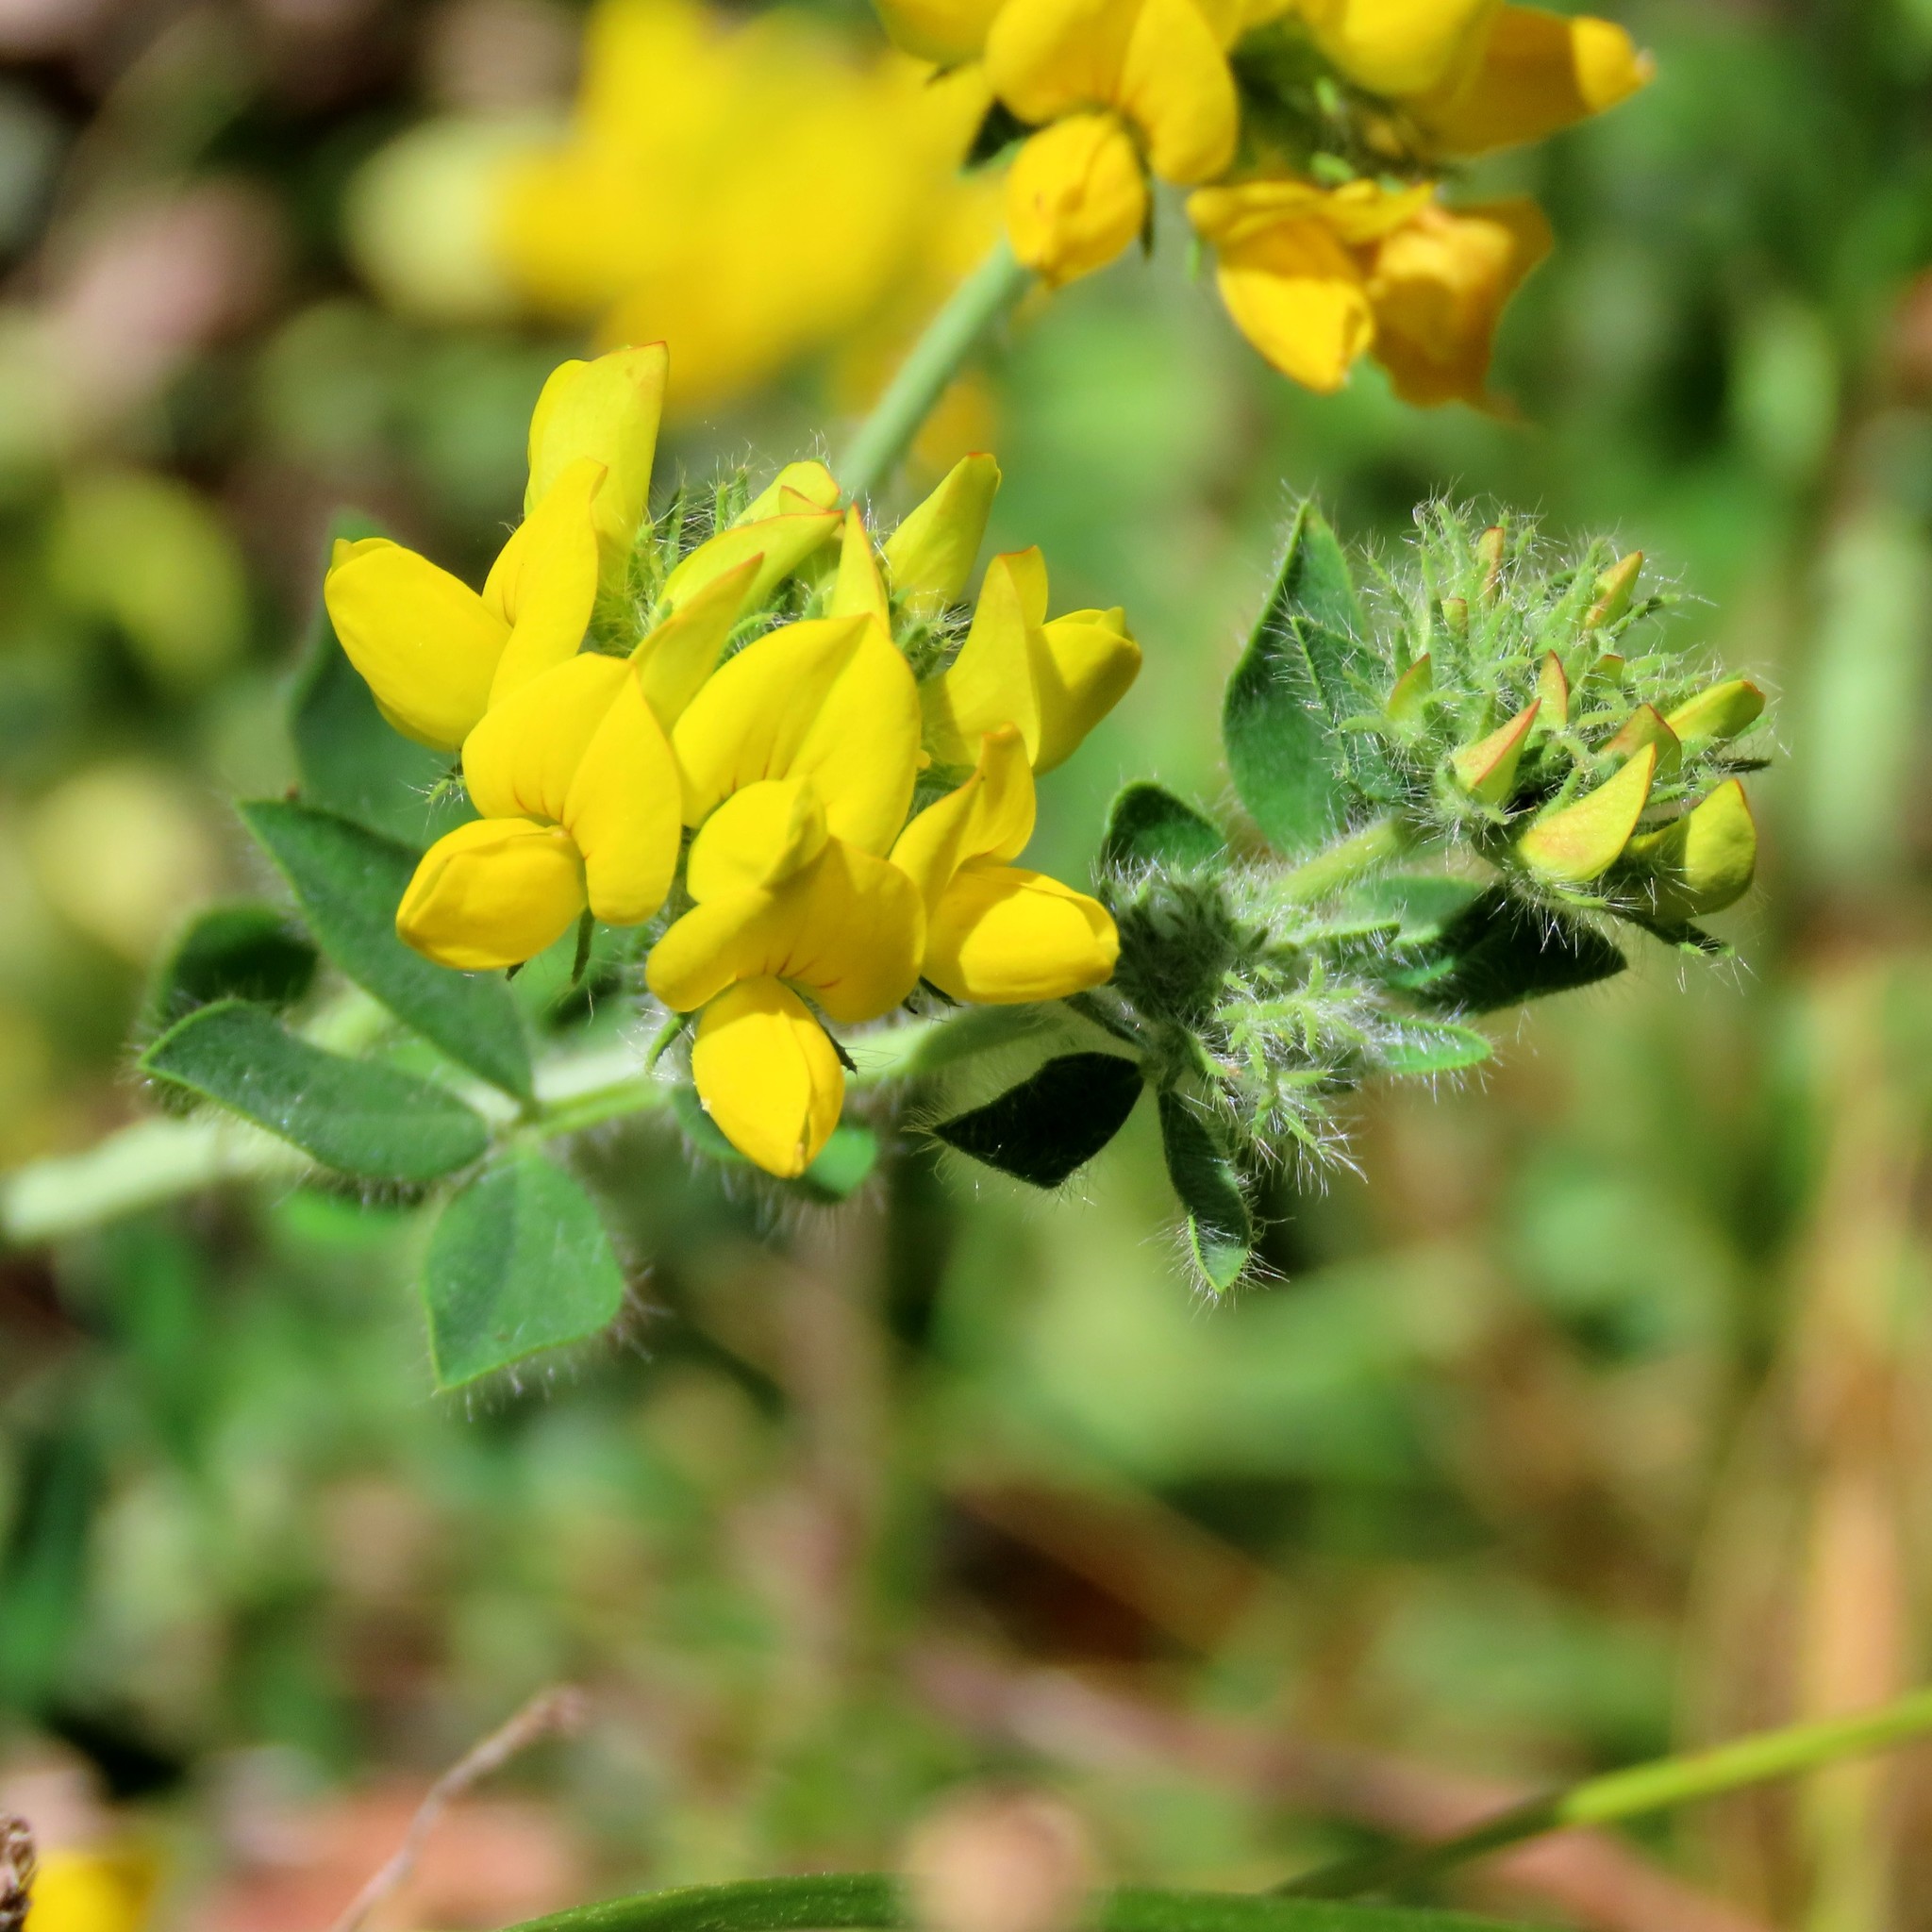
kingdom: Plantae
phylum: Tracheophyta
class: Magnoliopsida
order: Fabales
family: Fabaceae
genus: Lotus
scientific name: Lotus corniculatus
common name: Common bird's-foot-trefoil
